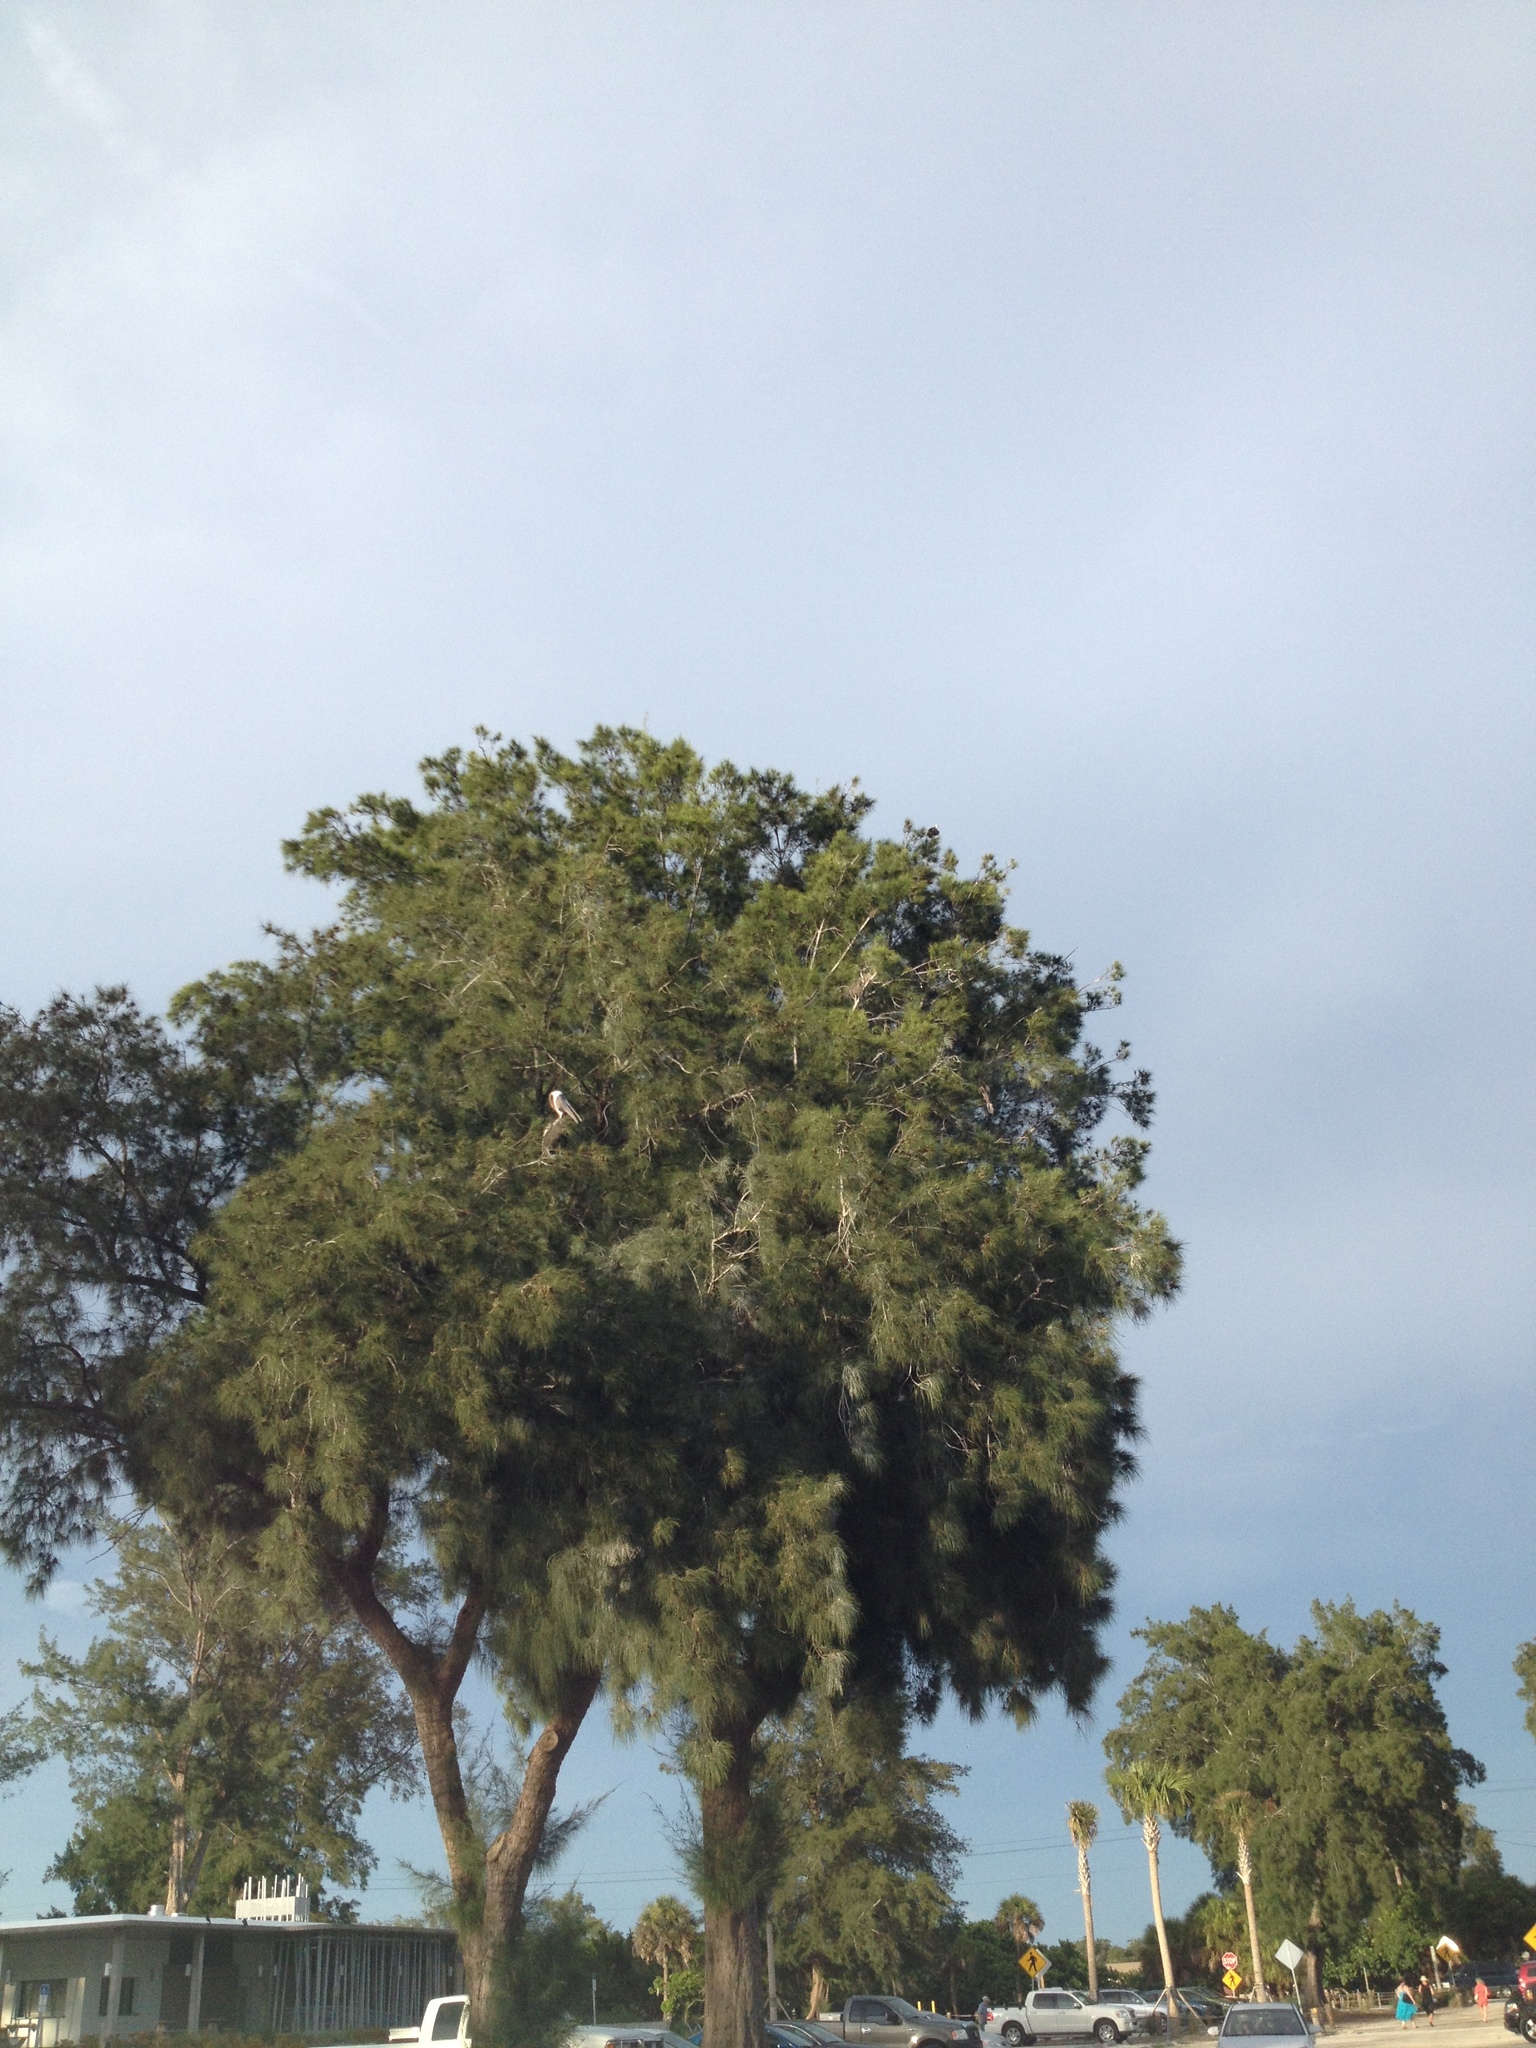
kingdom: Animalia
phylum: Chordata
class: Aves
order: Pelecaniformes
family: Pelecanidae
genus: Pelecanus
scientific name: Pelecanus occidentalis
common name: Brown pelican
